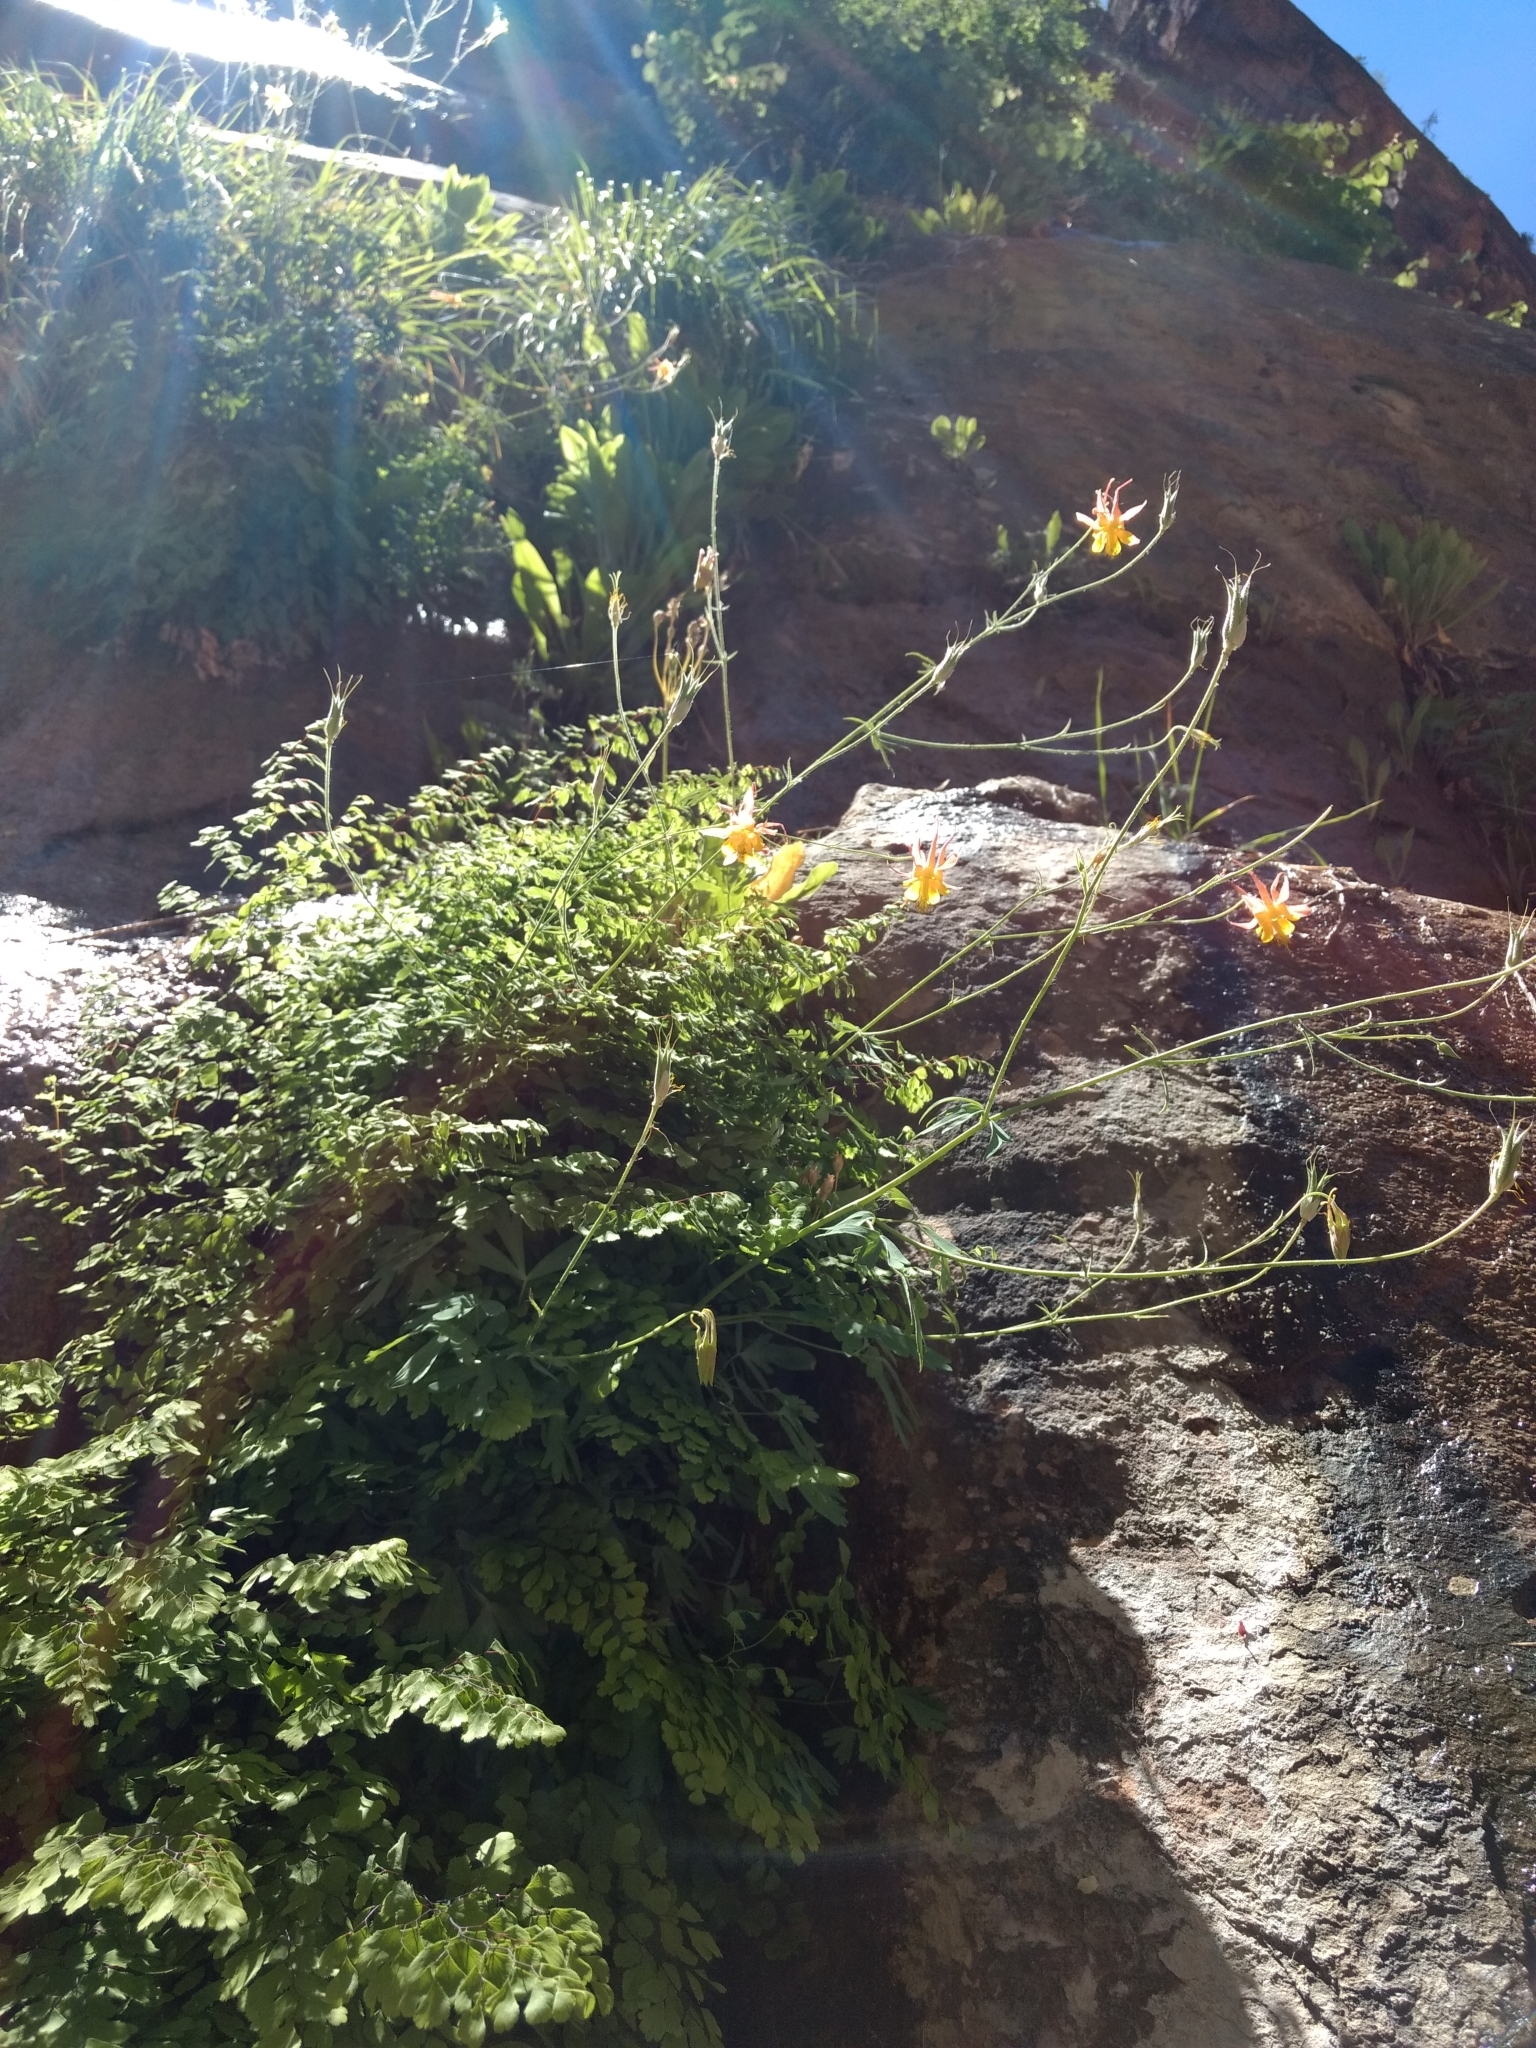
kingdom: Plantae
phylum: Tracheophyta
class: Magnoliopsida
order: Ranunculales
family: Ranunculaceae
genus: Aquilegia
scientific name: Aquilegia formosa
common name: Sitka columbine
